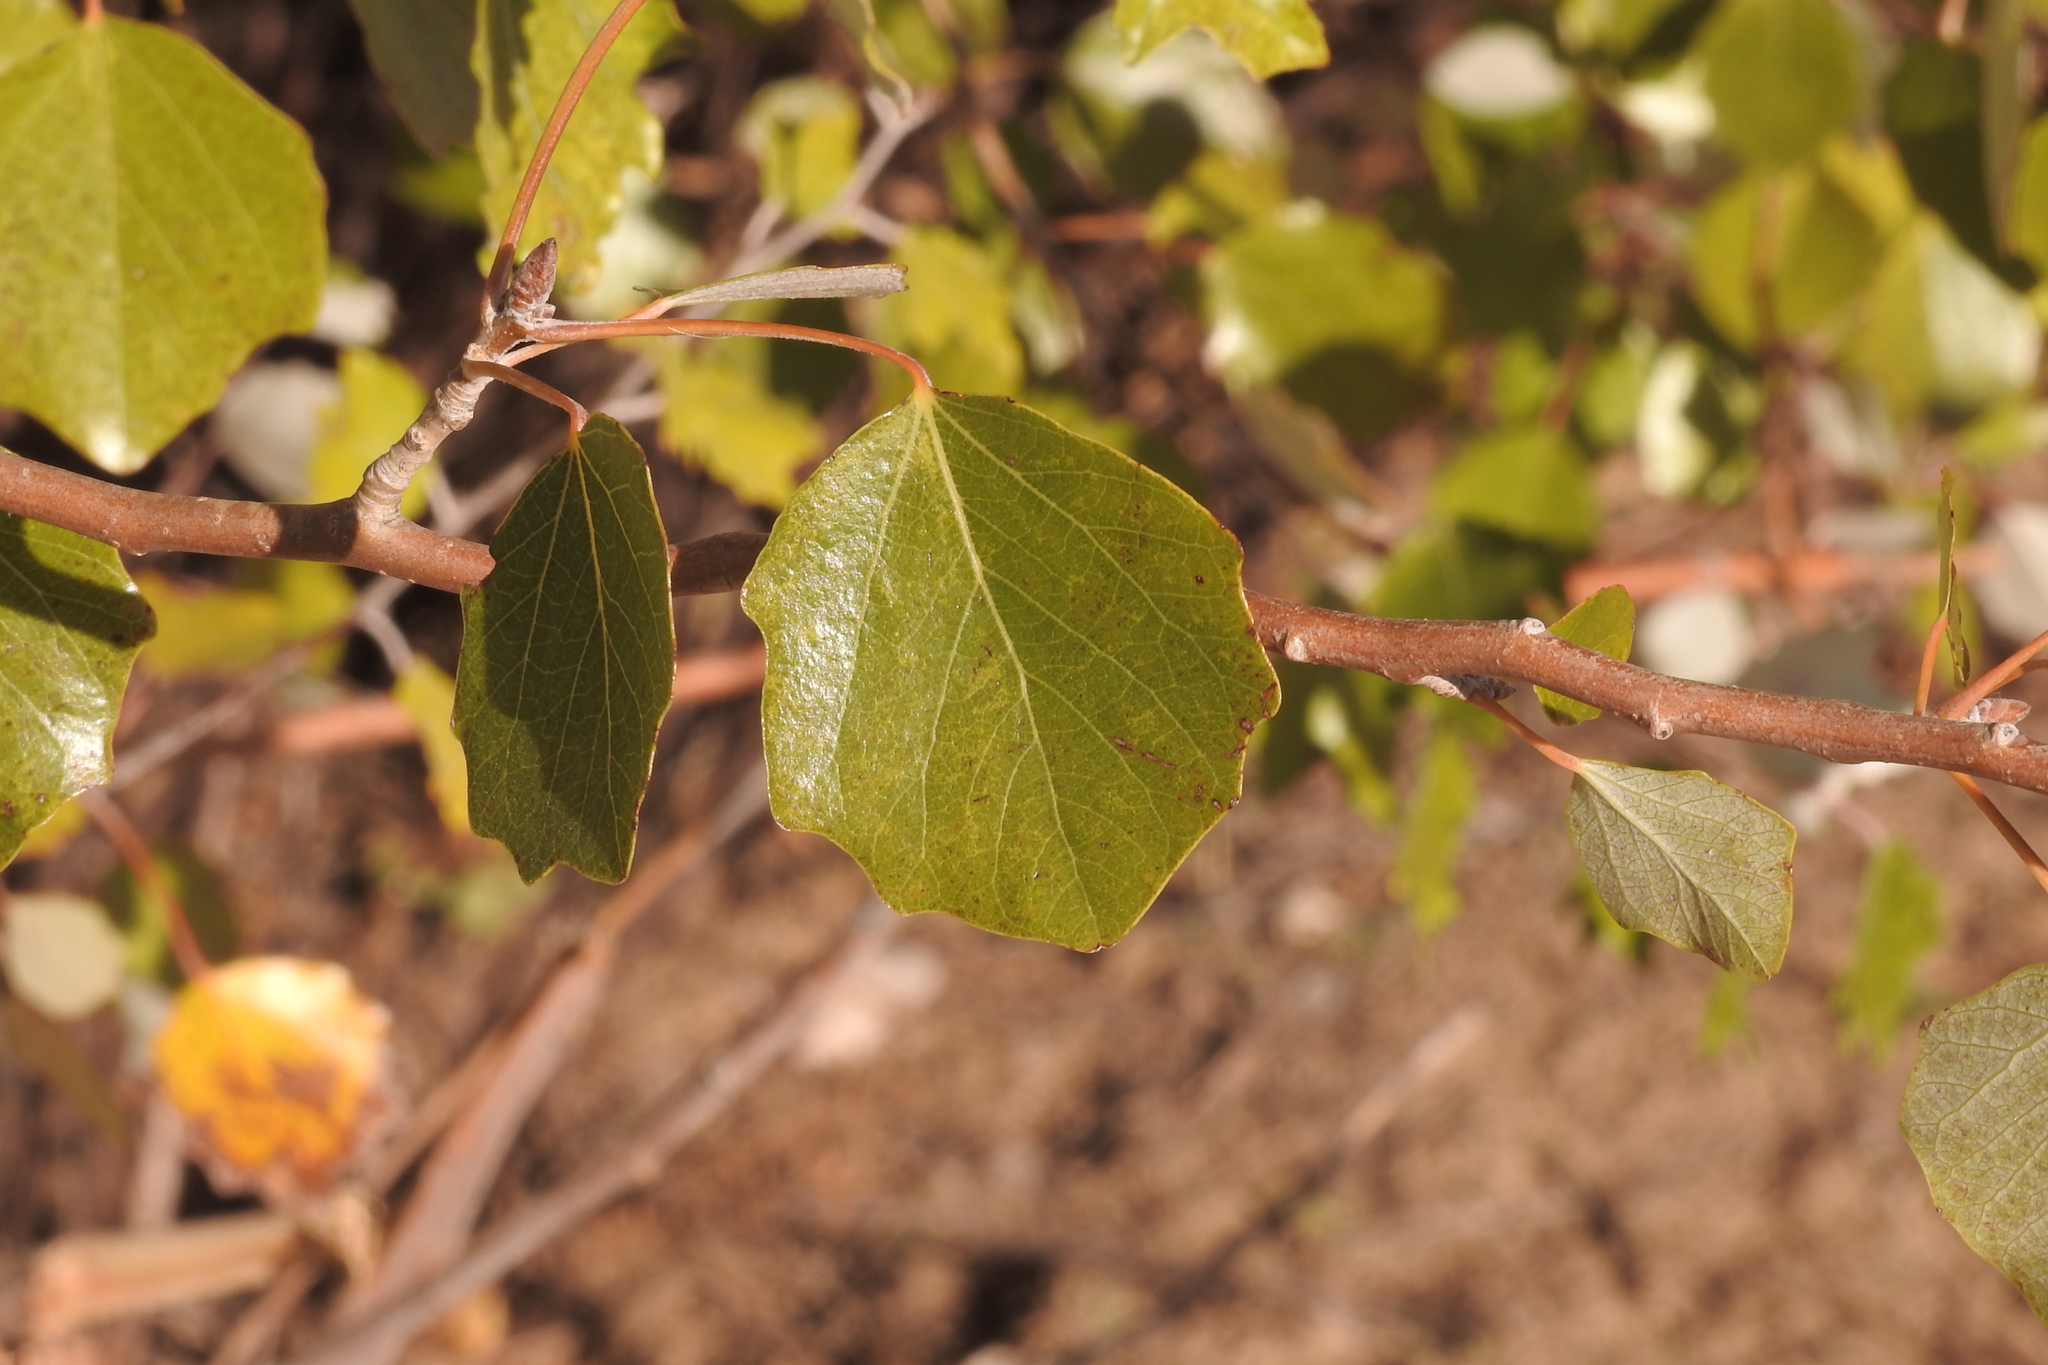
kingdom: Plantae
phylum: Tracheophyta
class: Magnoliopsida
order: Malpighiales
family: Salicaceae
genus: Populus
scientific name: Populus alba
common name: White poplar
